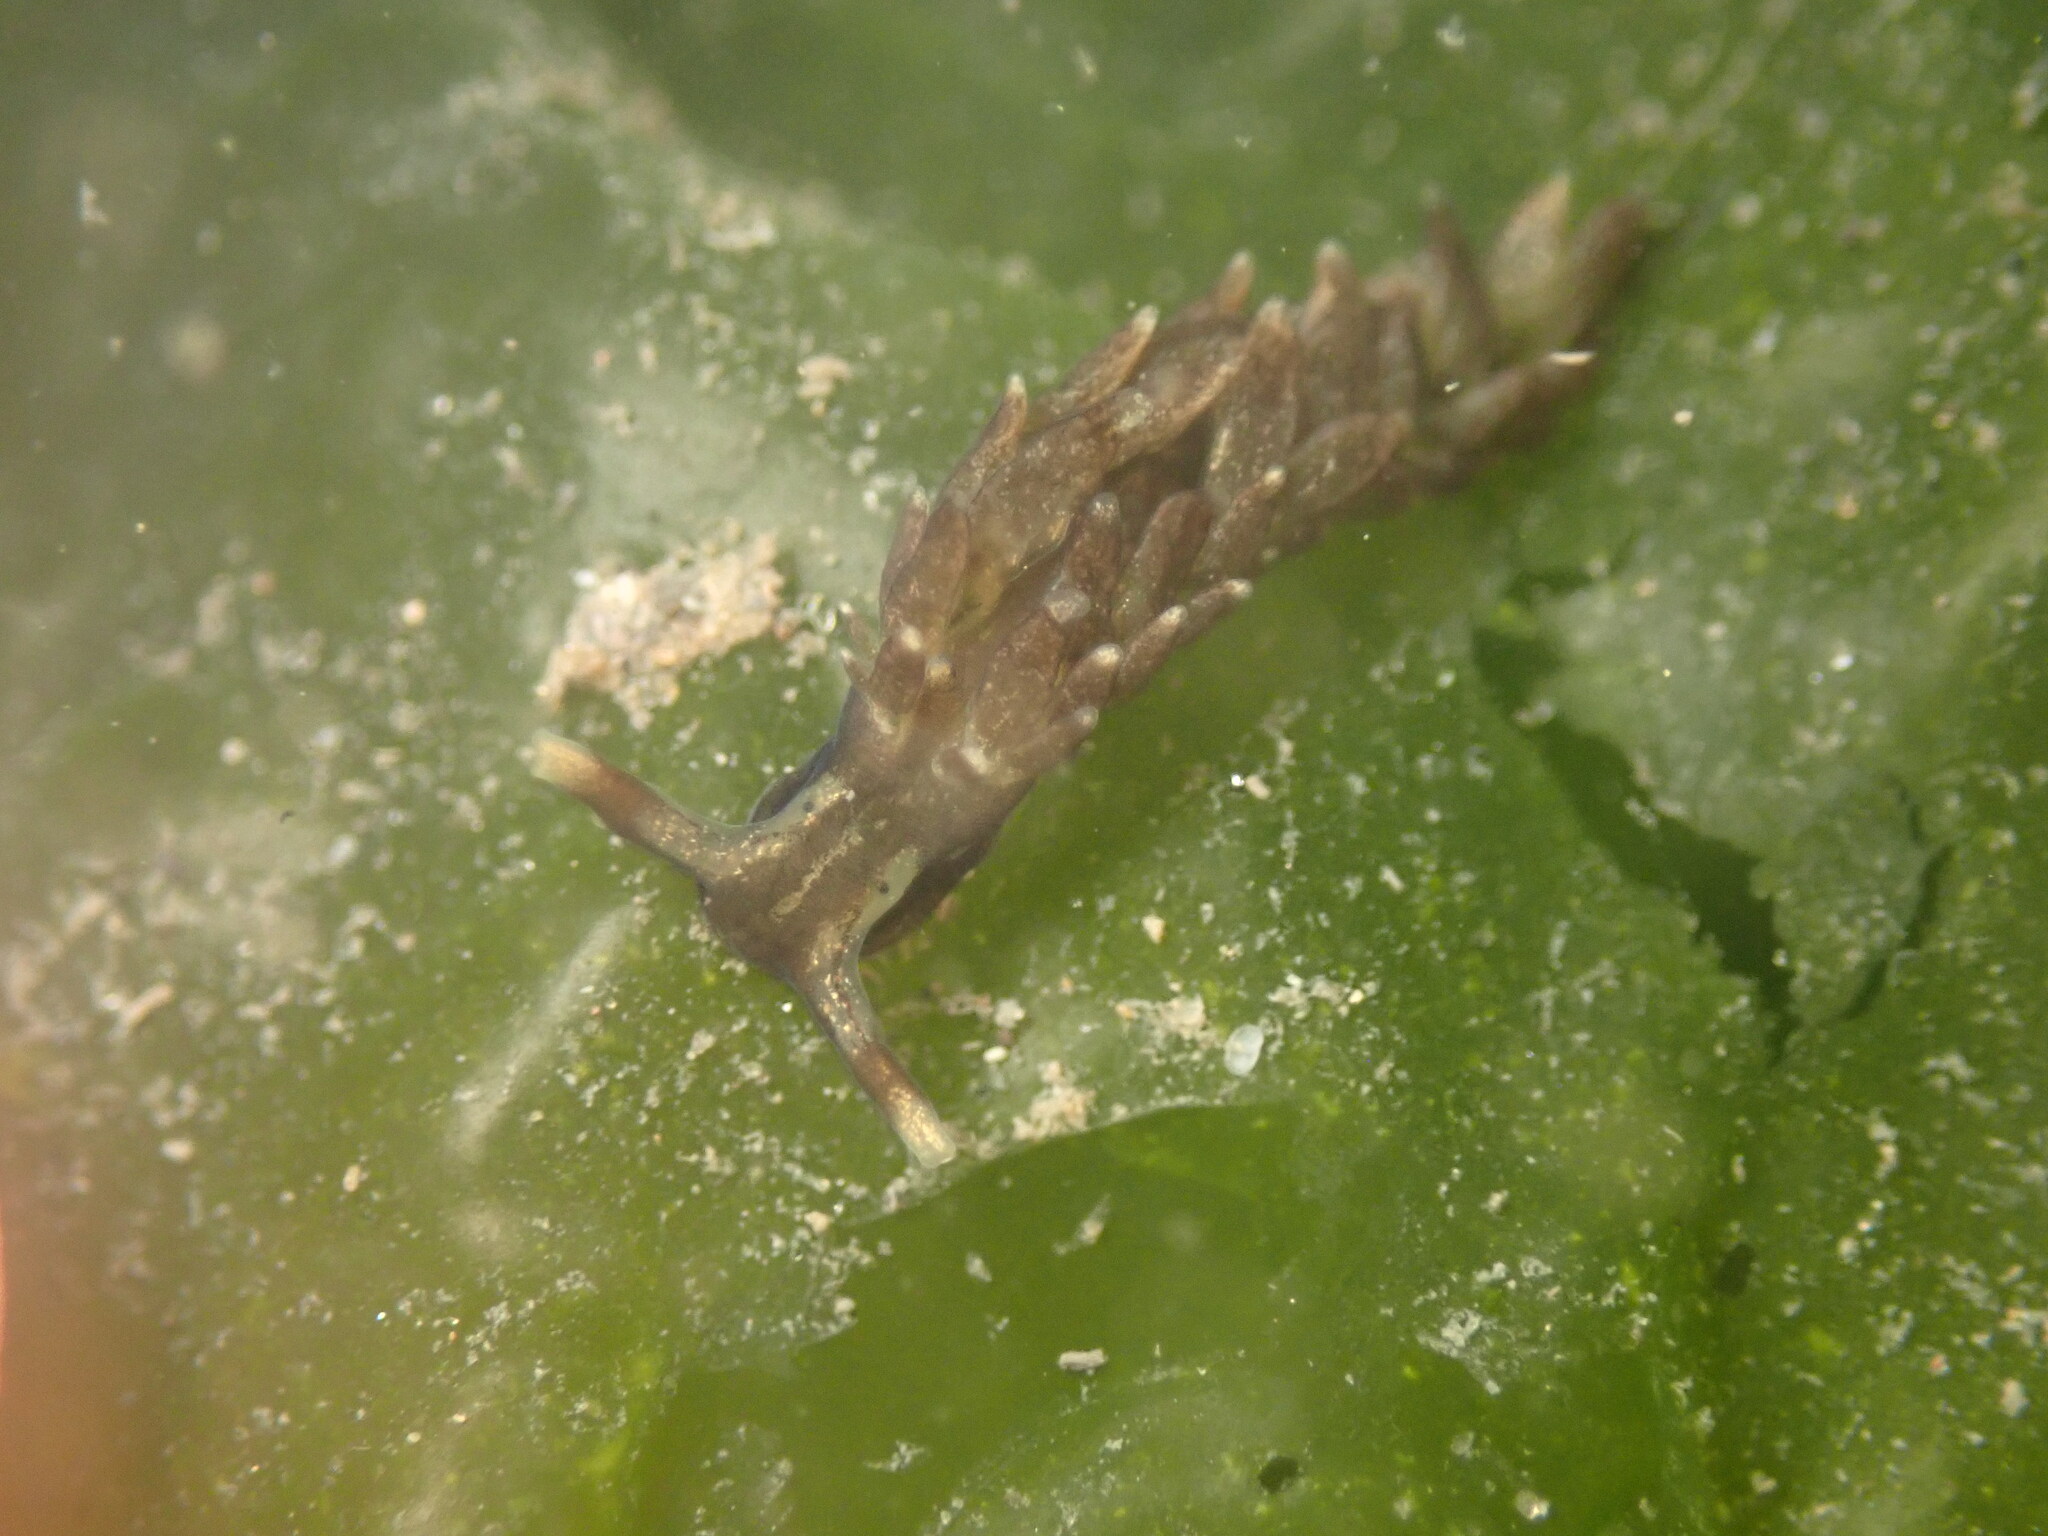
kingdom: Animalia
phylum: Mollusca
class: Gastropoda
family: Hermaeidae
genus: Aplysiopsis
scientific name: Aplysiopsis enteromorphae
